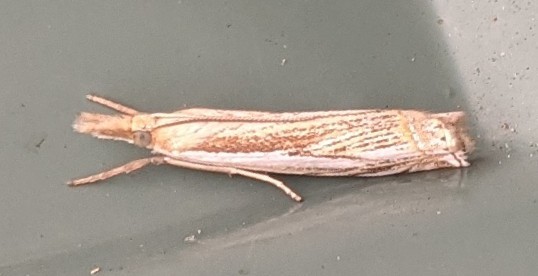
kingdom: Animalia
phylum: Arthropoda
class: Insecta
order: Lepidoptera
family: Crambidae
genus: Crambus
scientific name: Crambus saltuellus
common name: Pasture grass-veneer
